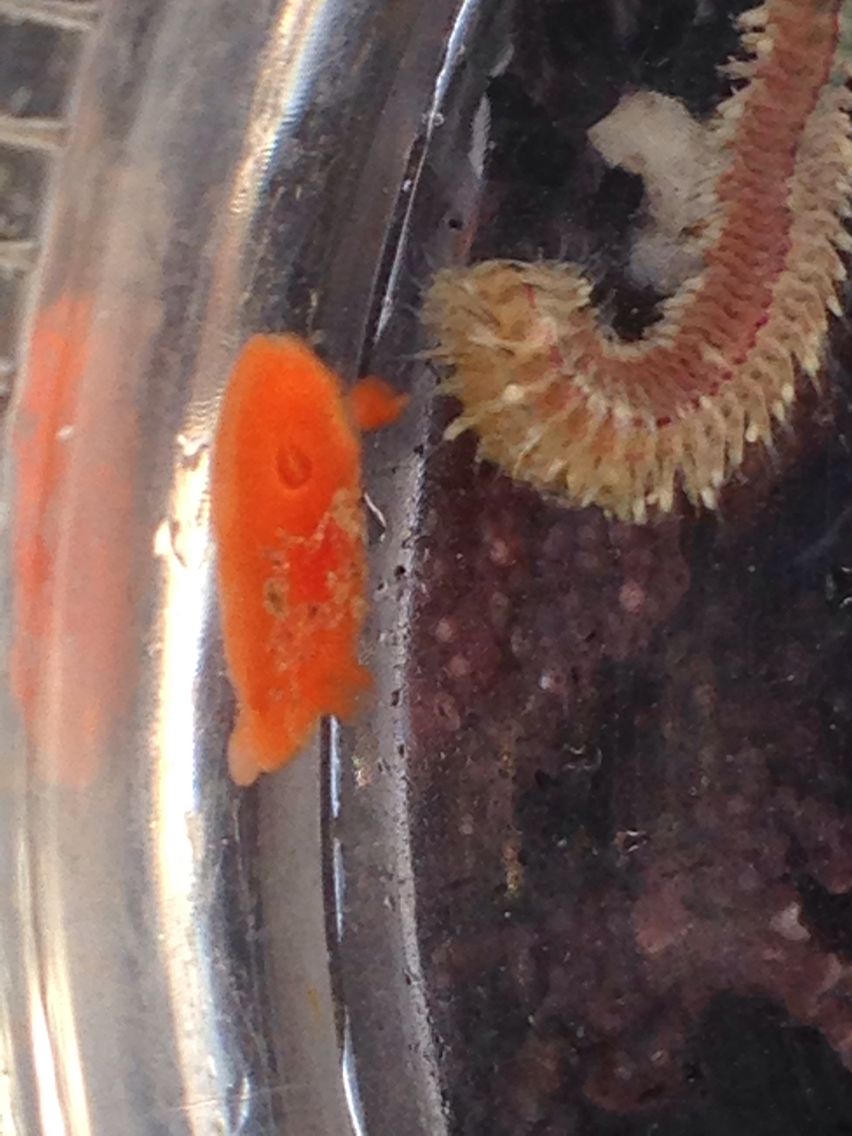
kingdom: Animalia
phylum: Mollusca
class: Gastropoda
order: Nudibranchia
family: Discodorididae
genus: Rostanga
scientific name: Rostanga pulchra
